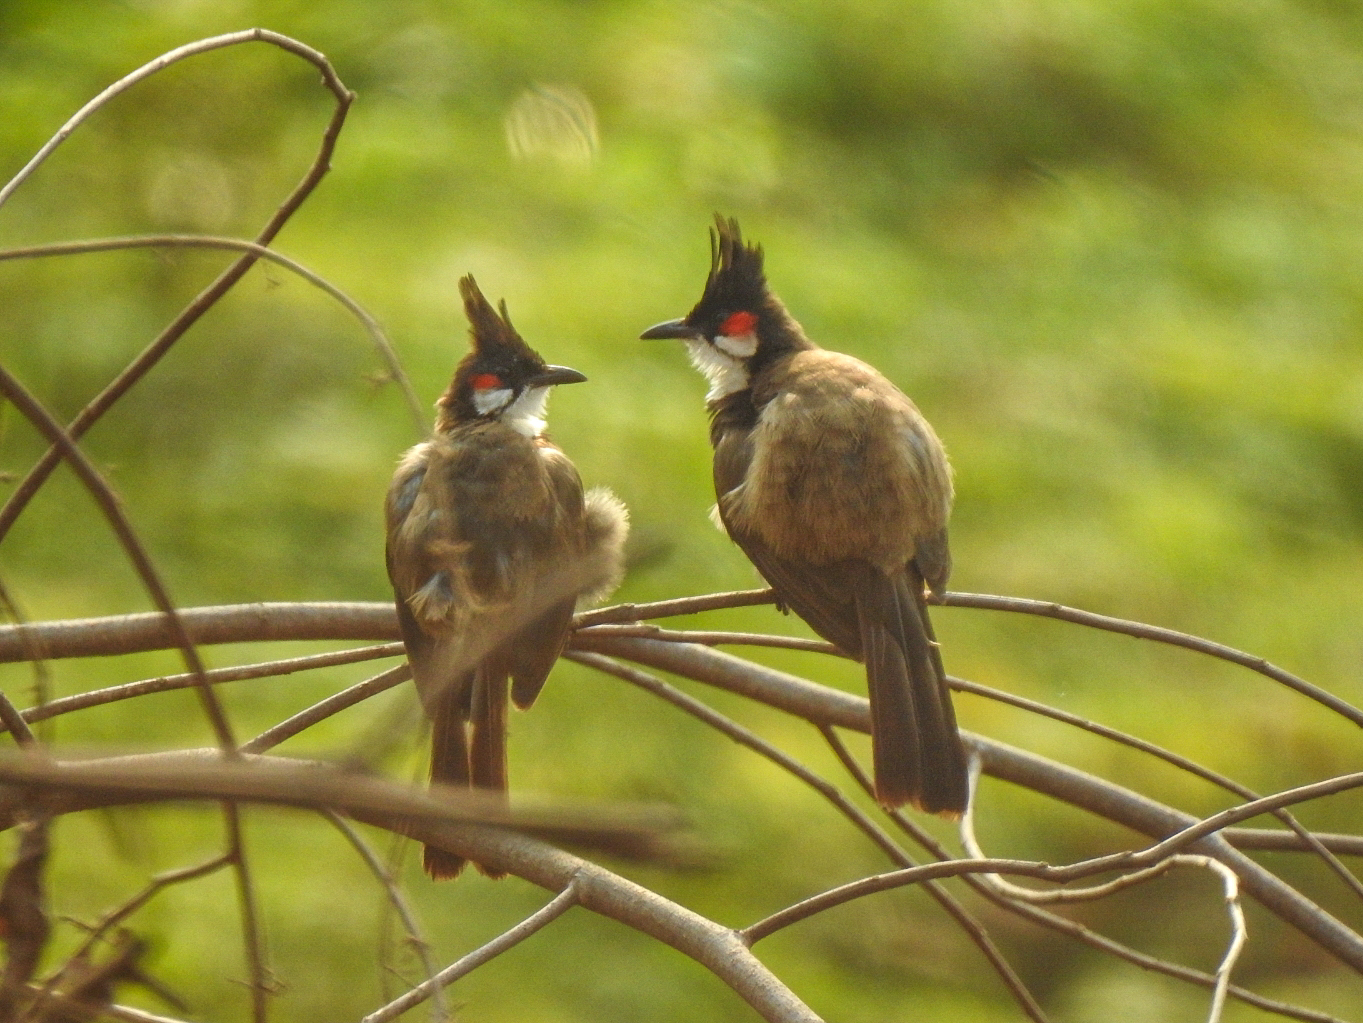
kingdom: Animalia
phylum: Chordata
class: Aves
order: Passeriformes
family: Pycnonotidae
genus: Pycnonotus
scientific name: Pycnonotus jocosus
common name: Red-whiskered bulbul
